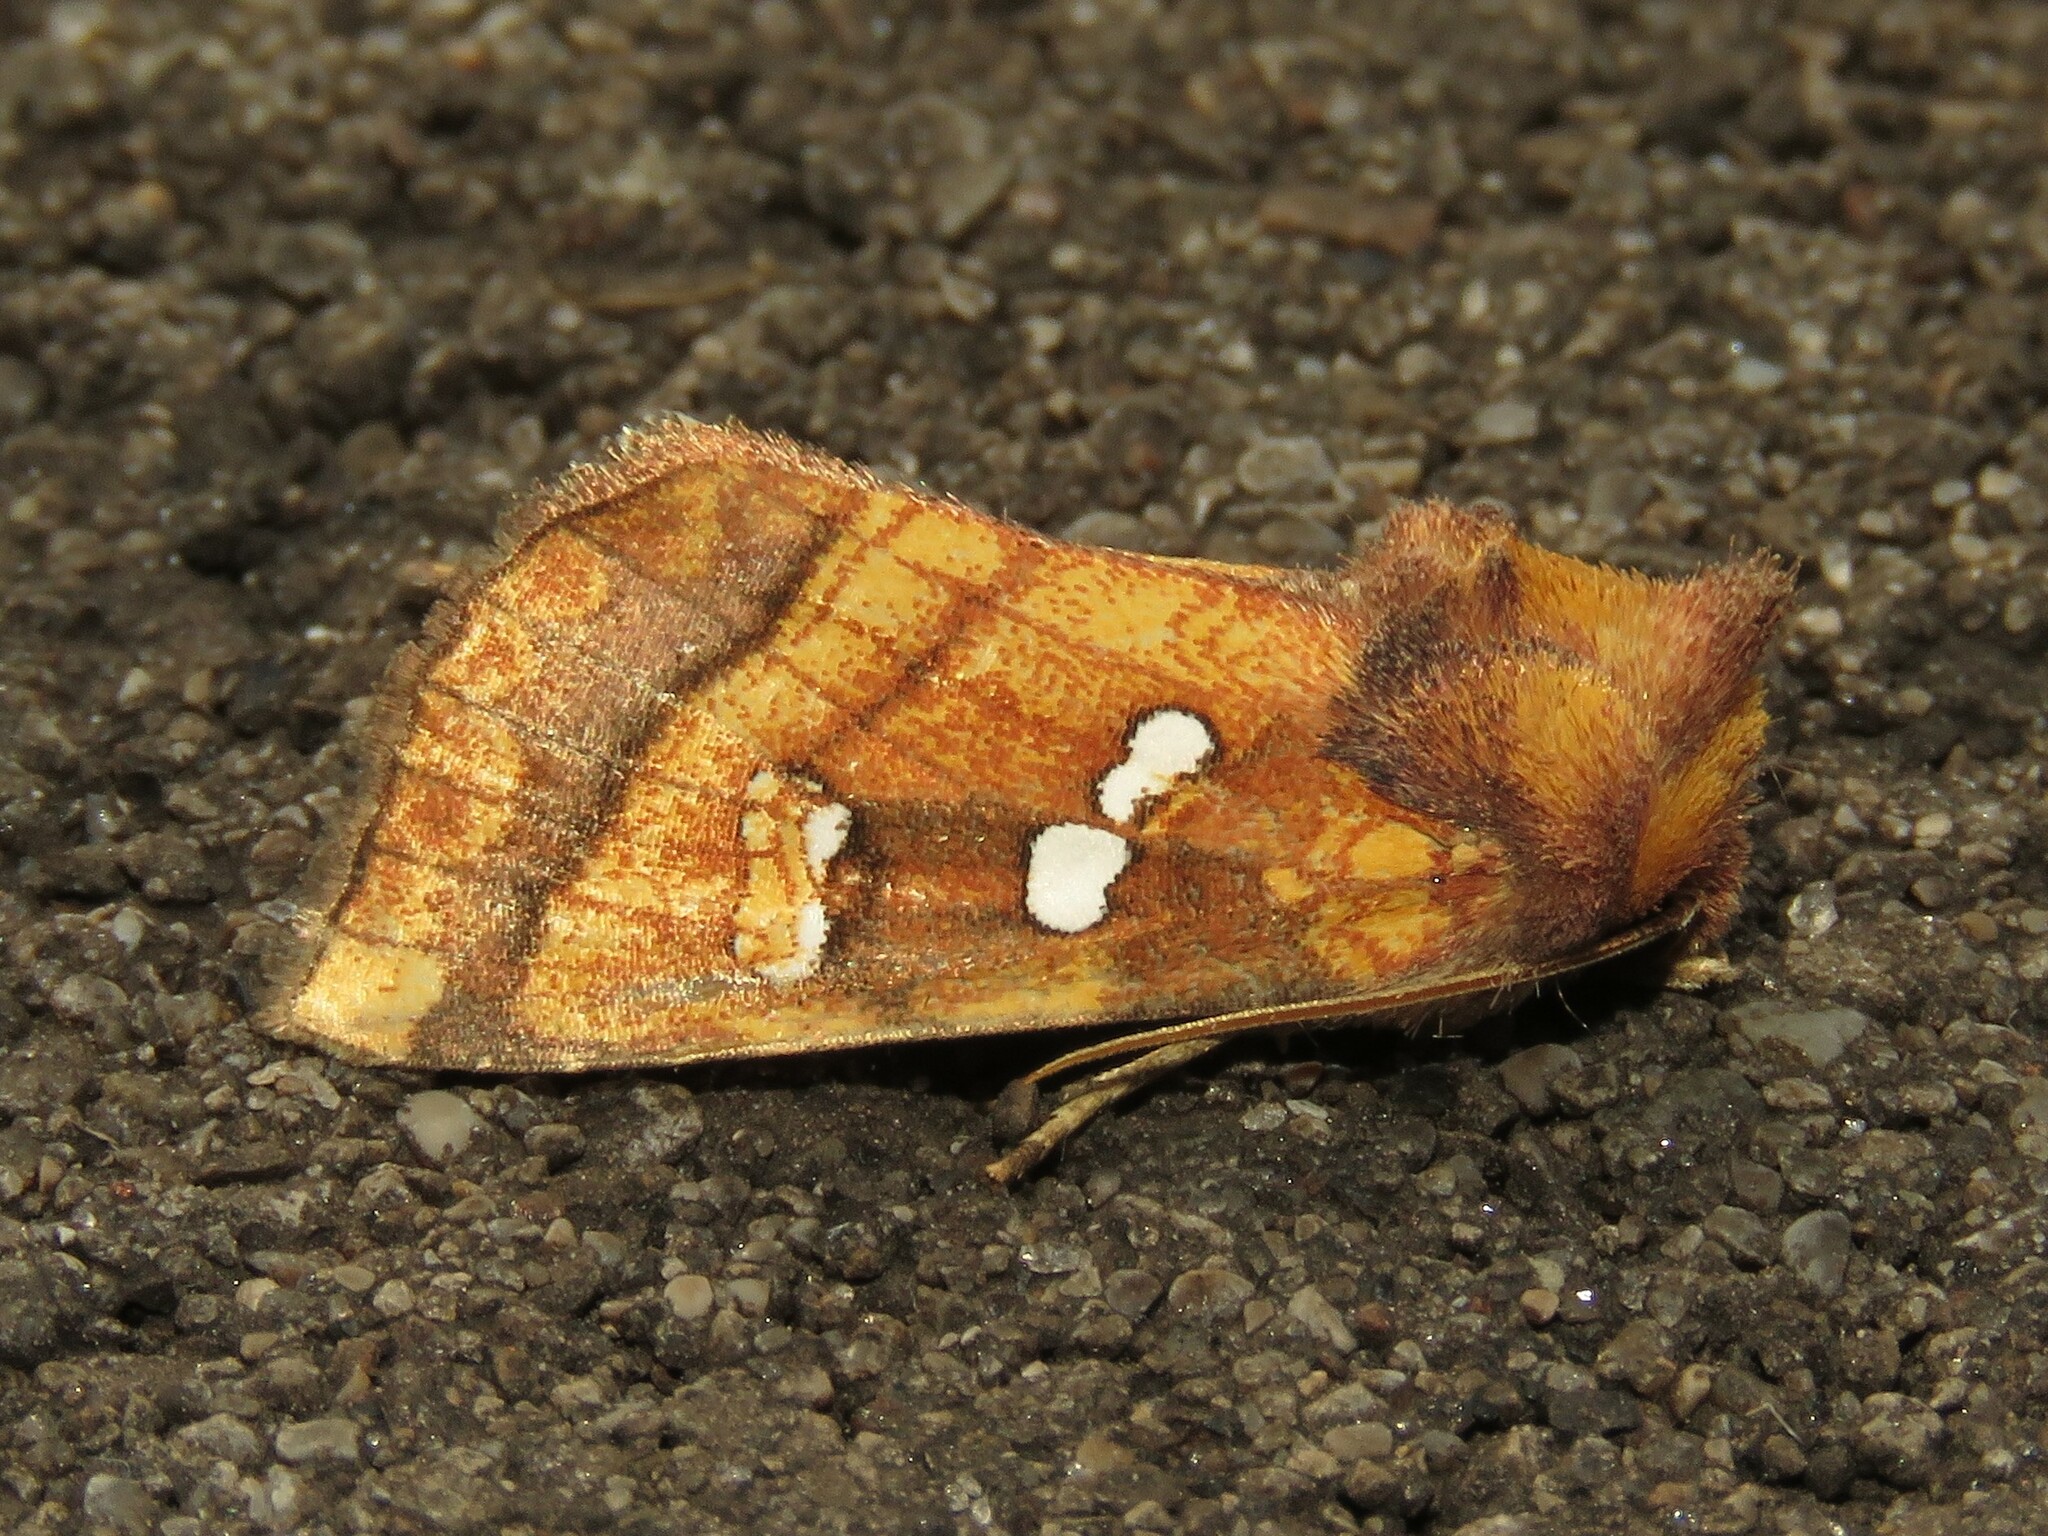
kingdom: Animalia
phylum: Arthropoda
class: Insecta
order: Lepidoptera
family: Noctuidae
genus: Papaipema
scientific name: Papaipema pterisii
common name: Bracken borer moth
